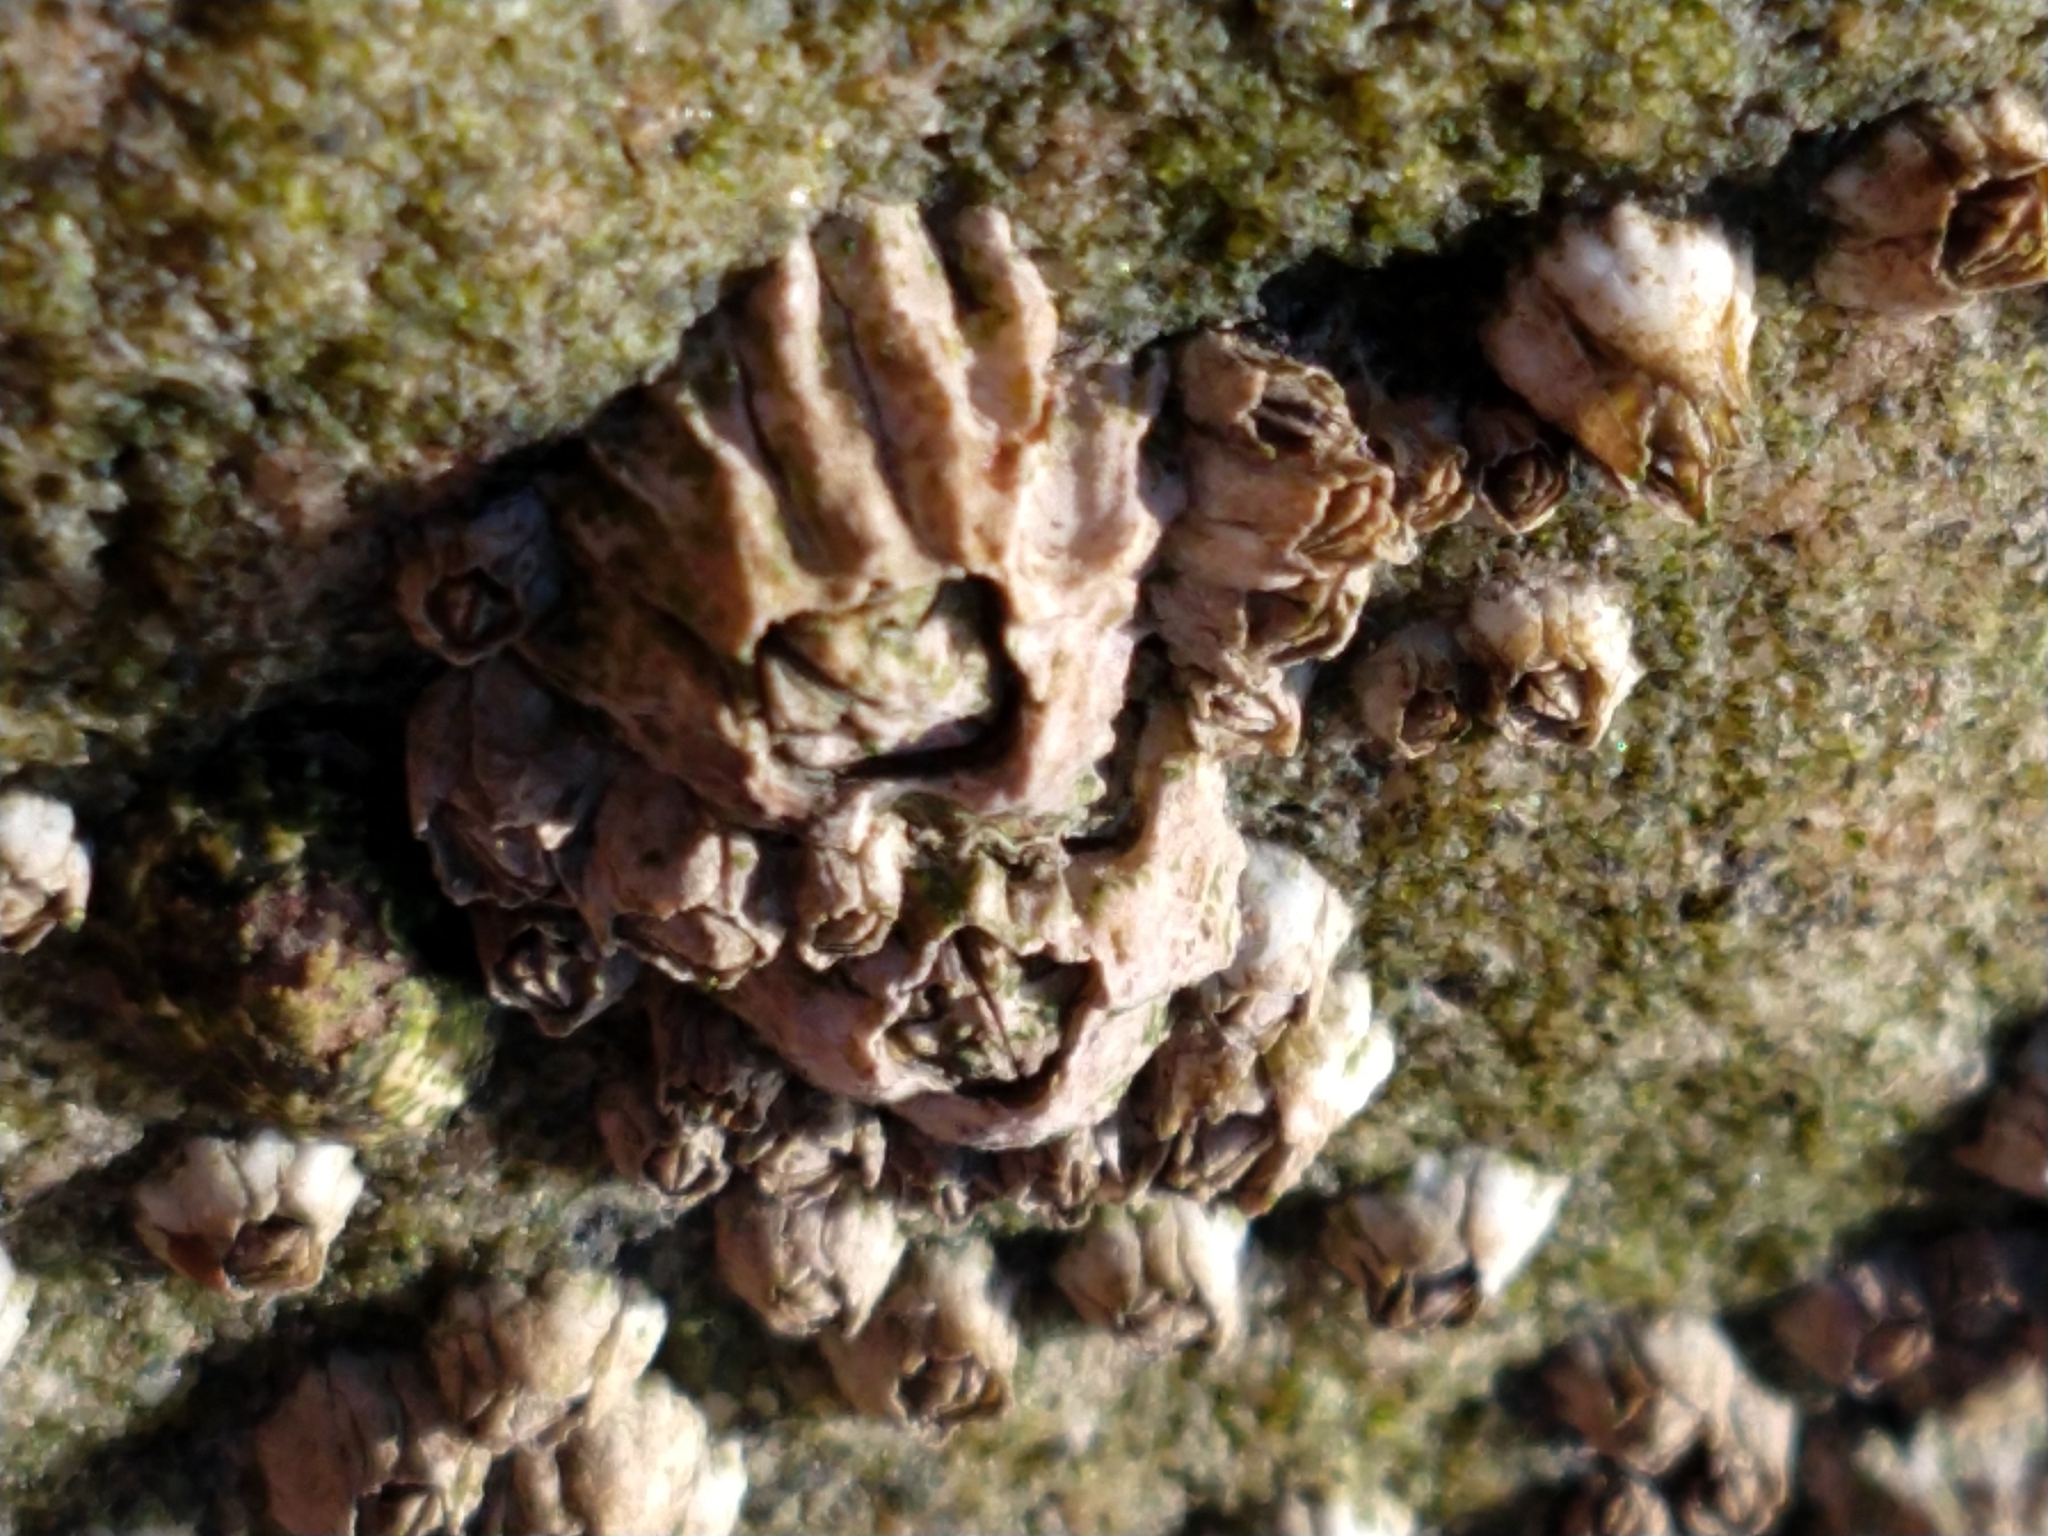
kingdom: Animalia
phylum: Arthropoda
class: Maxillopoda
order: Sessilia
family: Balanidae
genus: Balanus
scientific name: Balanus glandula
